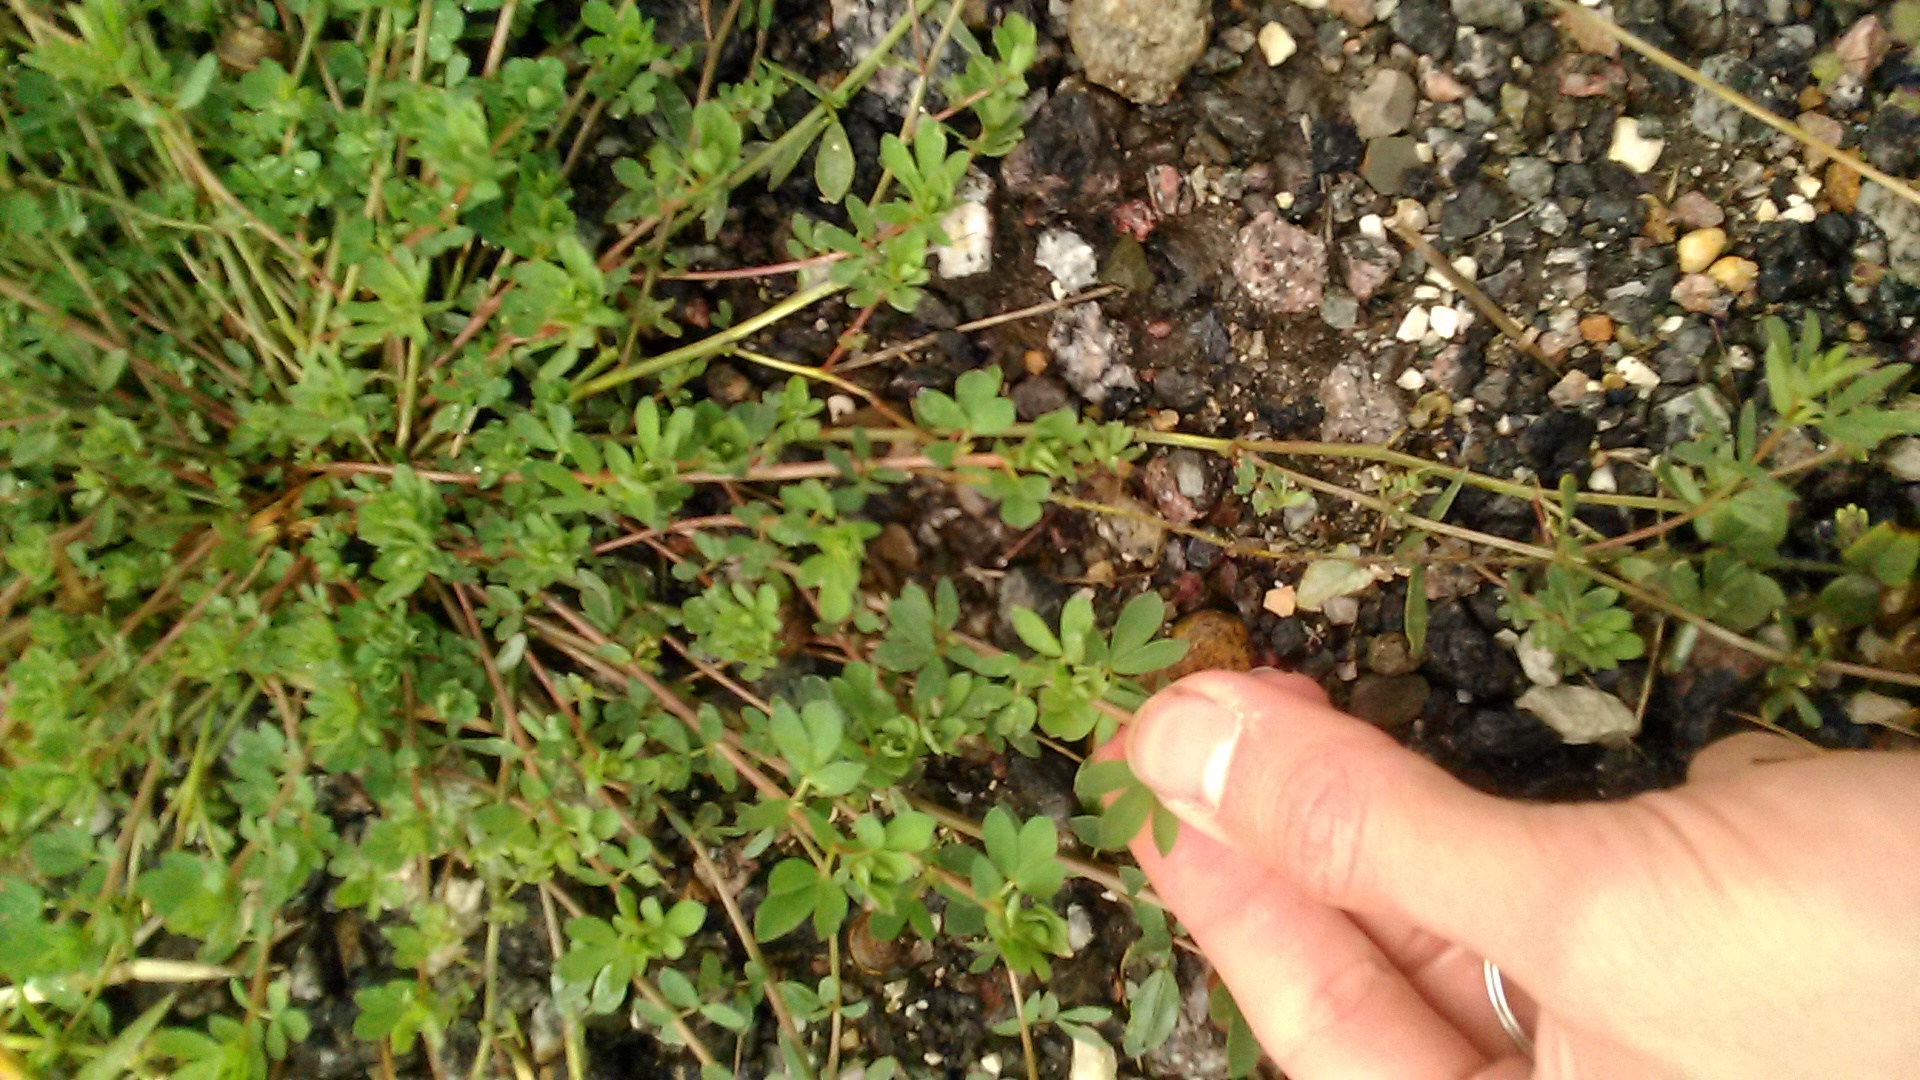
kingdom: Plantae
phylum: Tracheophyta
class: Magnoliopsida
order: Fabales
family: Fabaceae
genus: Lotus
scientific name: Lotus corniculatus
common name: Common bird's-foot-trefoil
